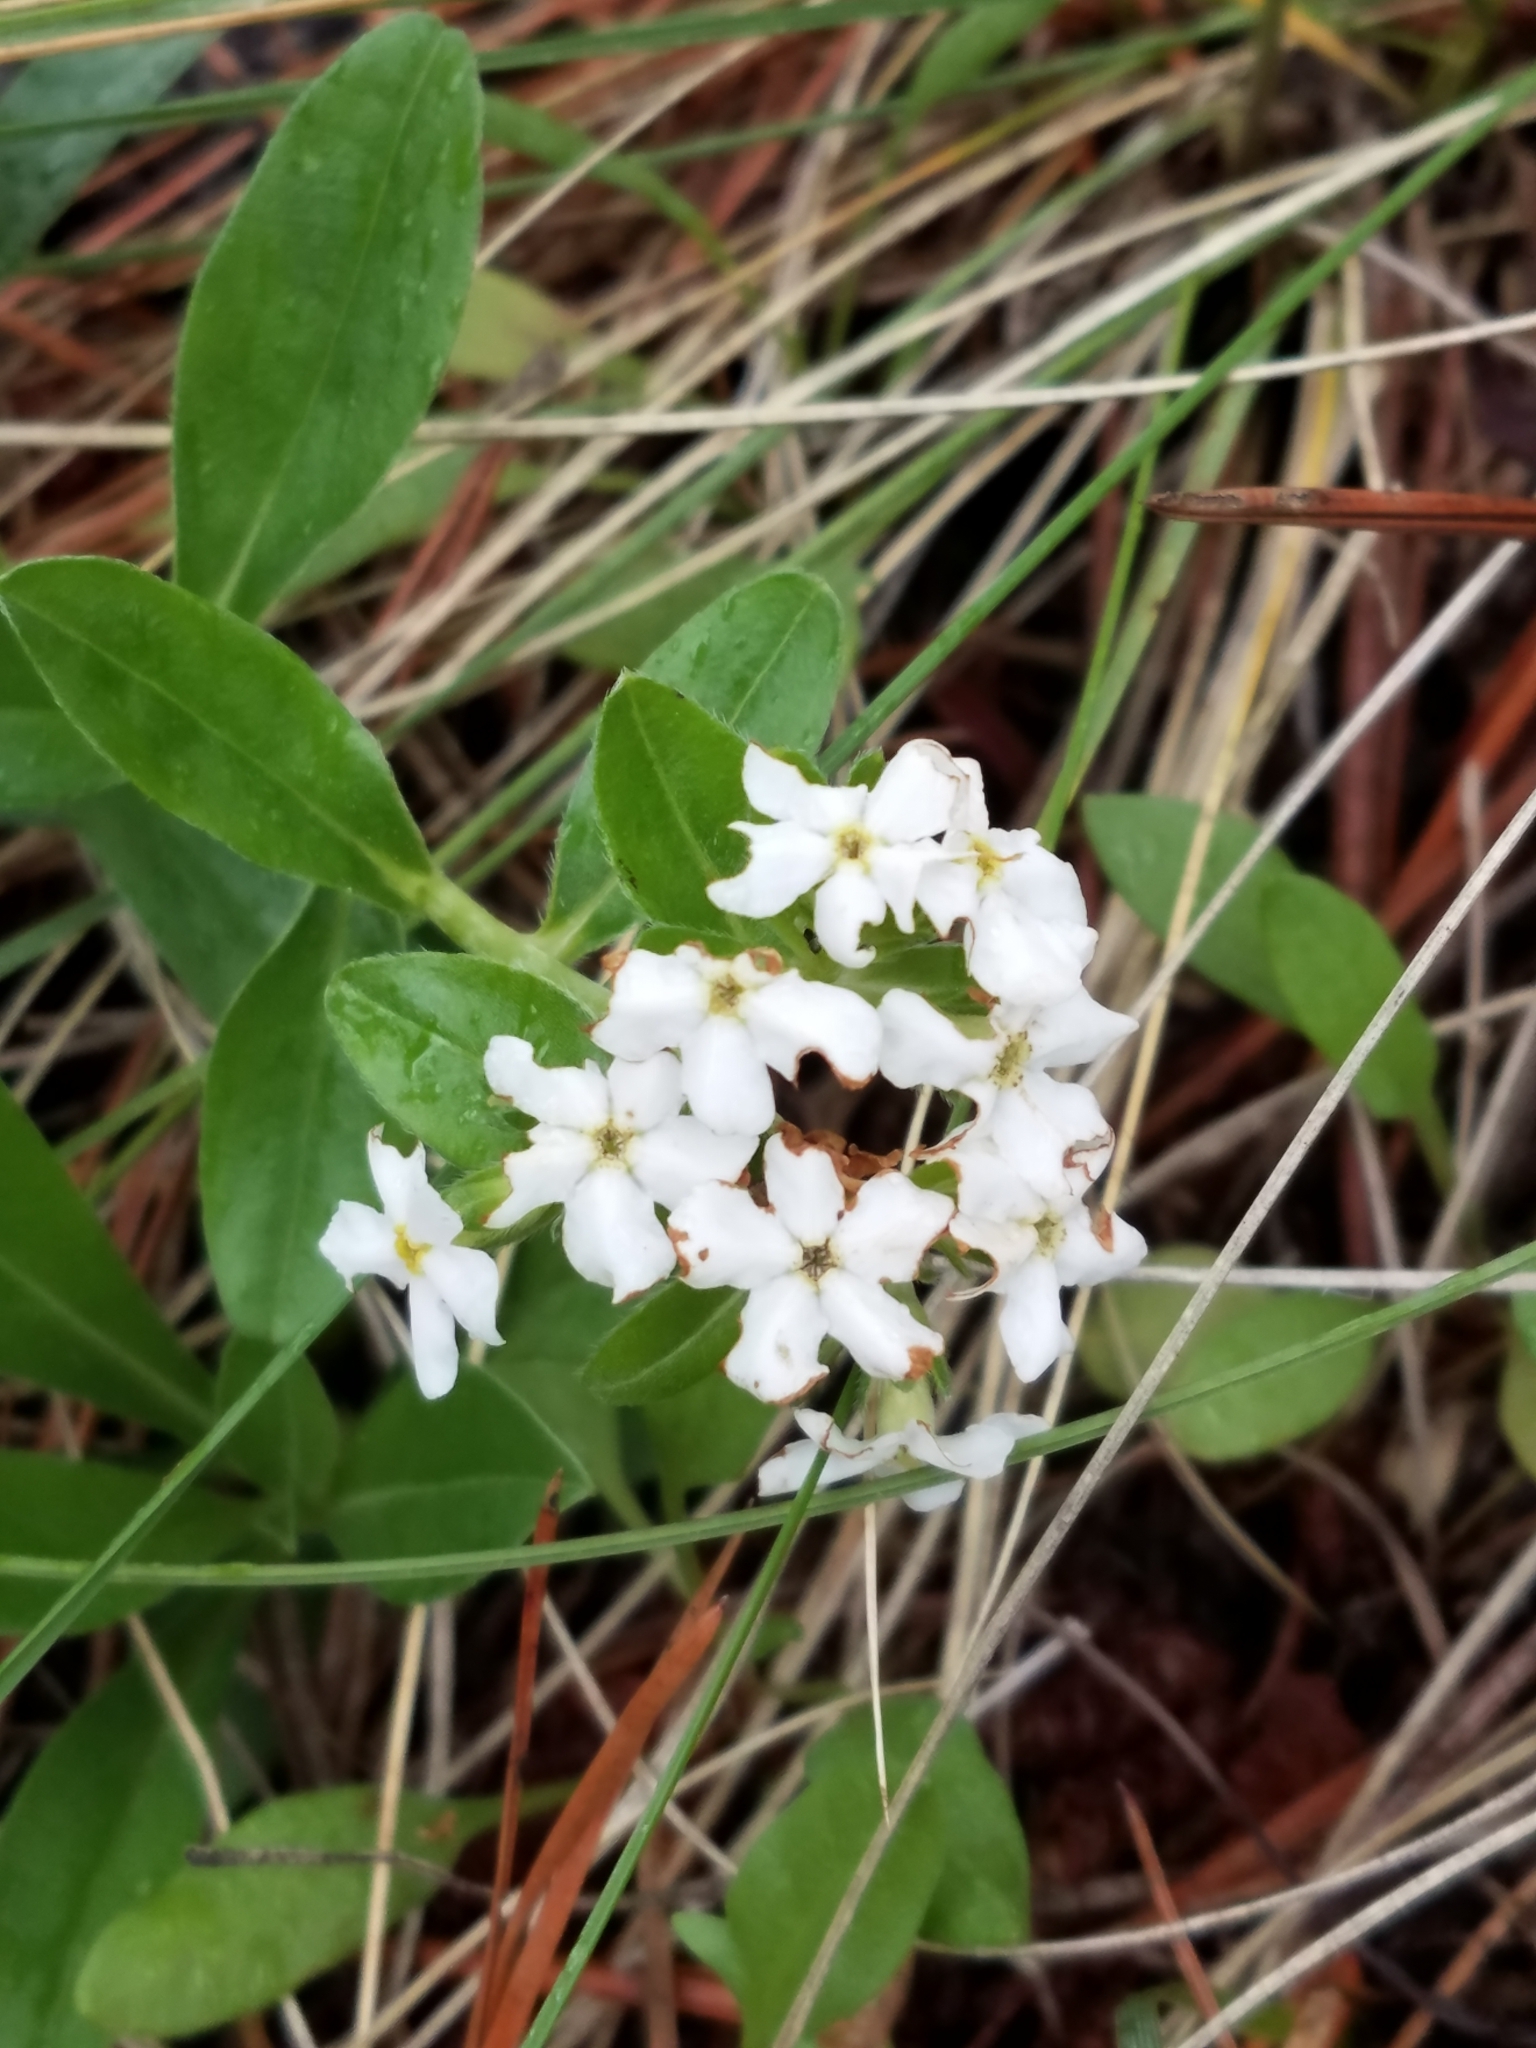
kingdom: Plantae
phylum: Tracheophyta
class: Magnoliopsida
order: Boraginales
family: Boraginaceae
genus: Lithospermum
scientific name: Lithospermum distichum
